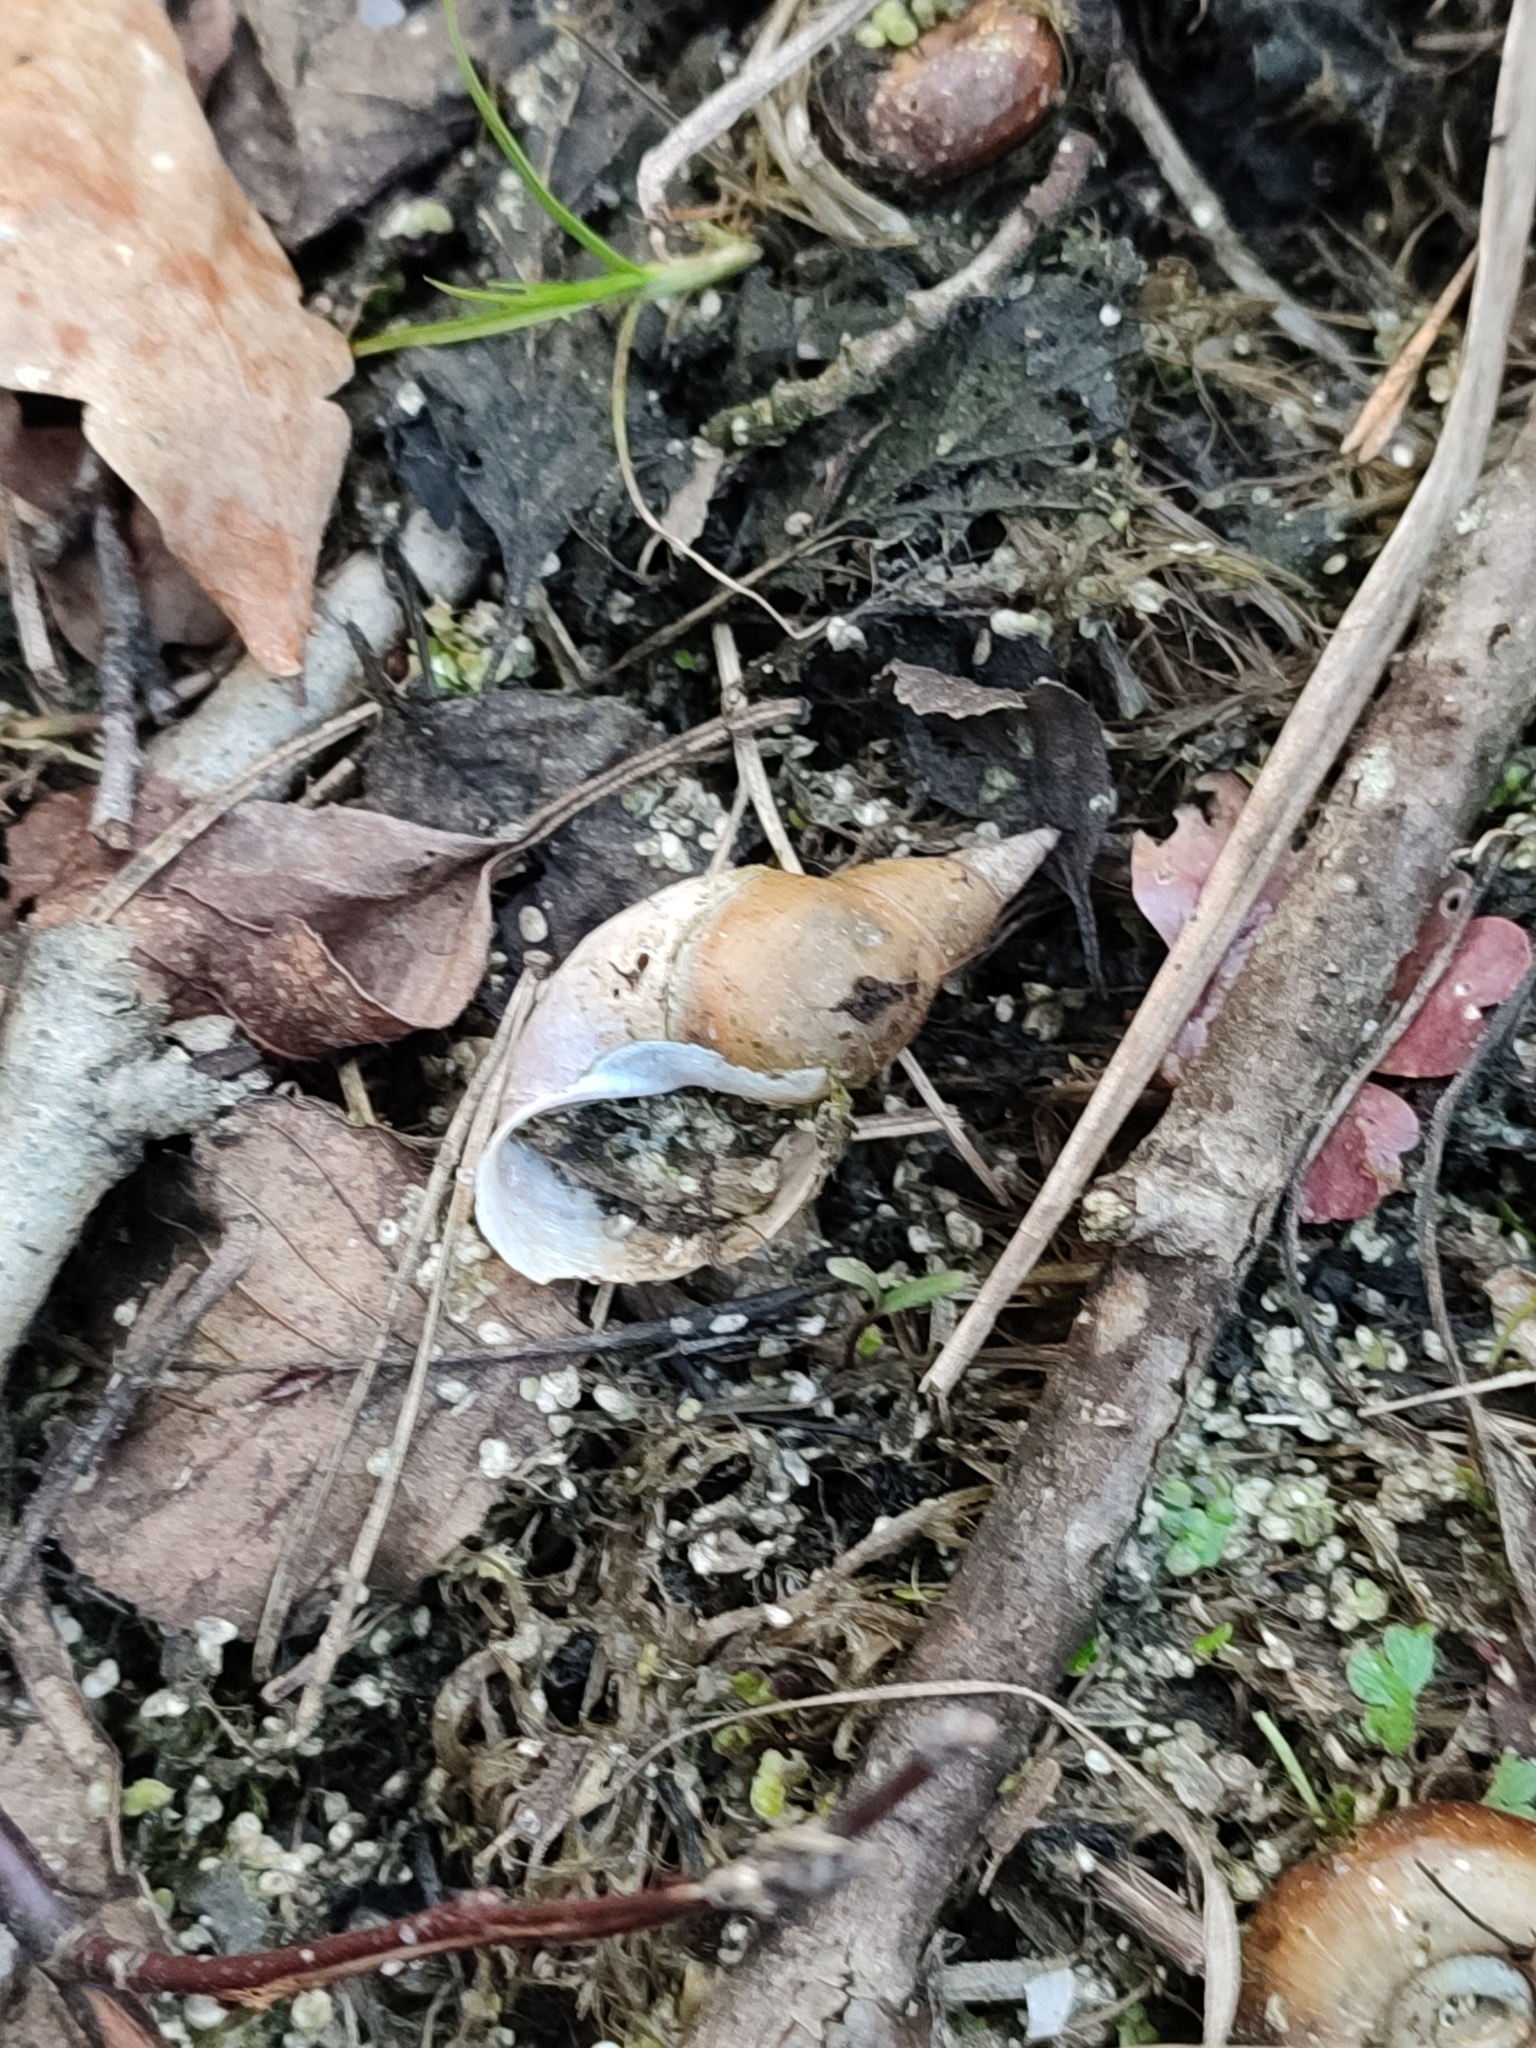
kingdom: Animalia
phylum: Mollusca
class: Gastropoda
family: Lymnaeidae
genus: Lymnaea
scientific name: Lymnaea stagnalis
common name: Great pond snail
